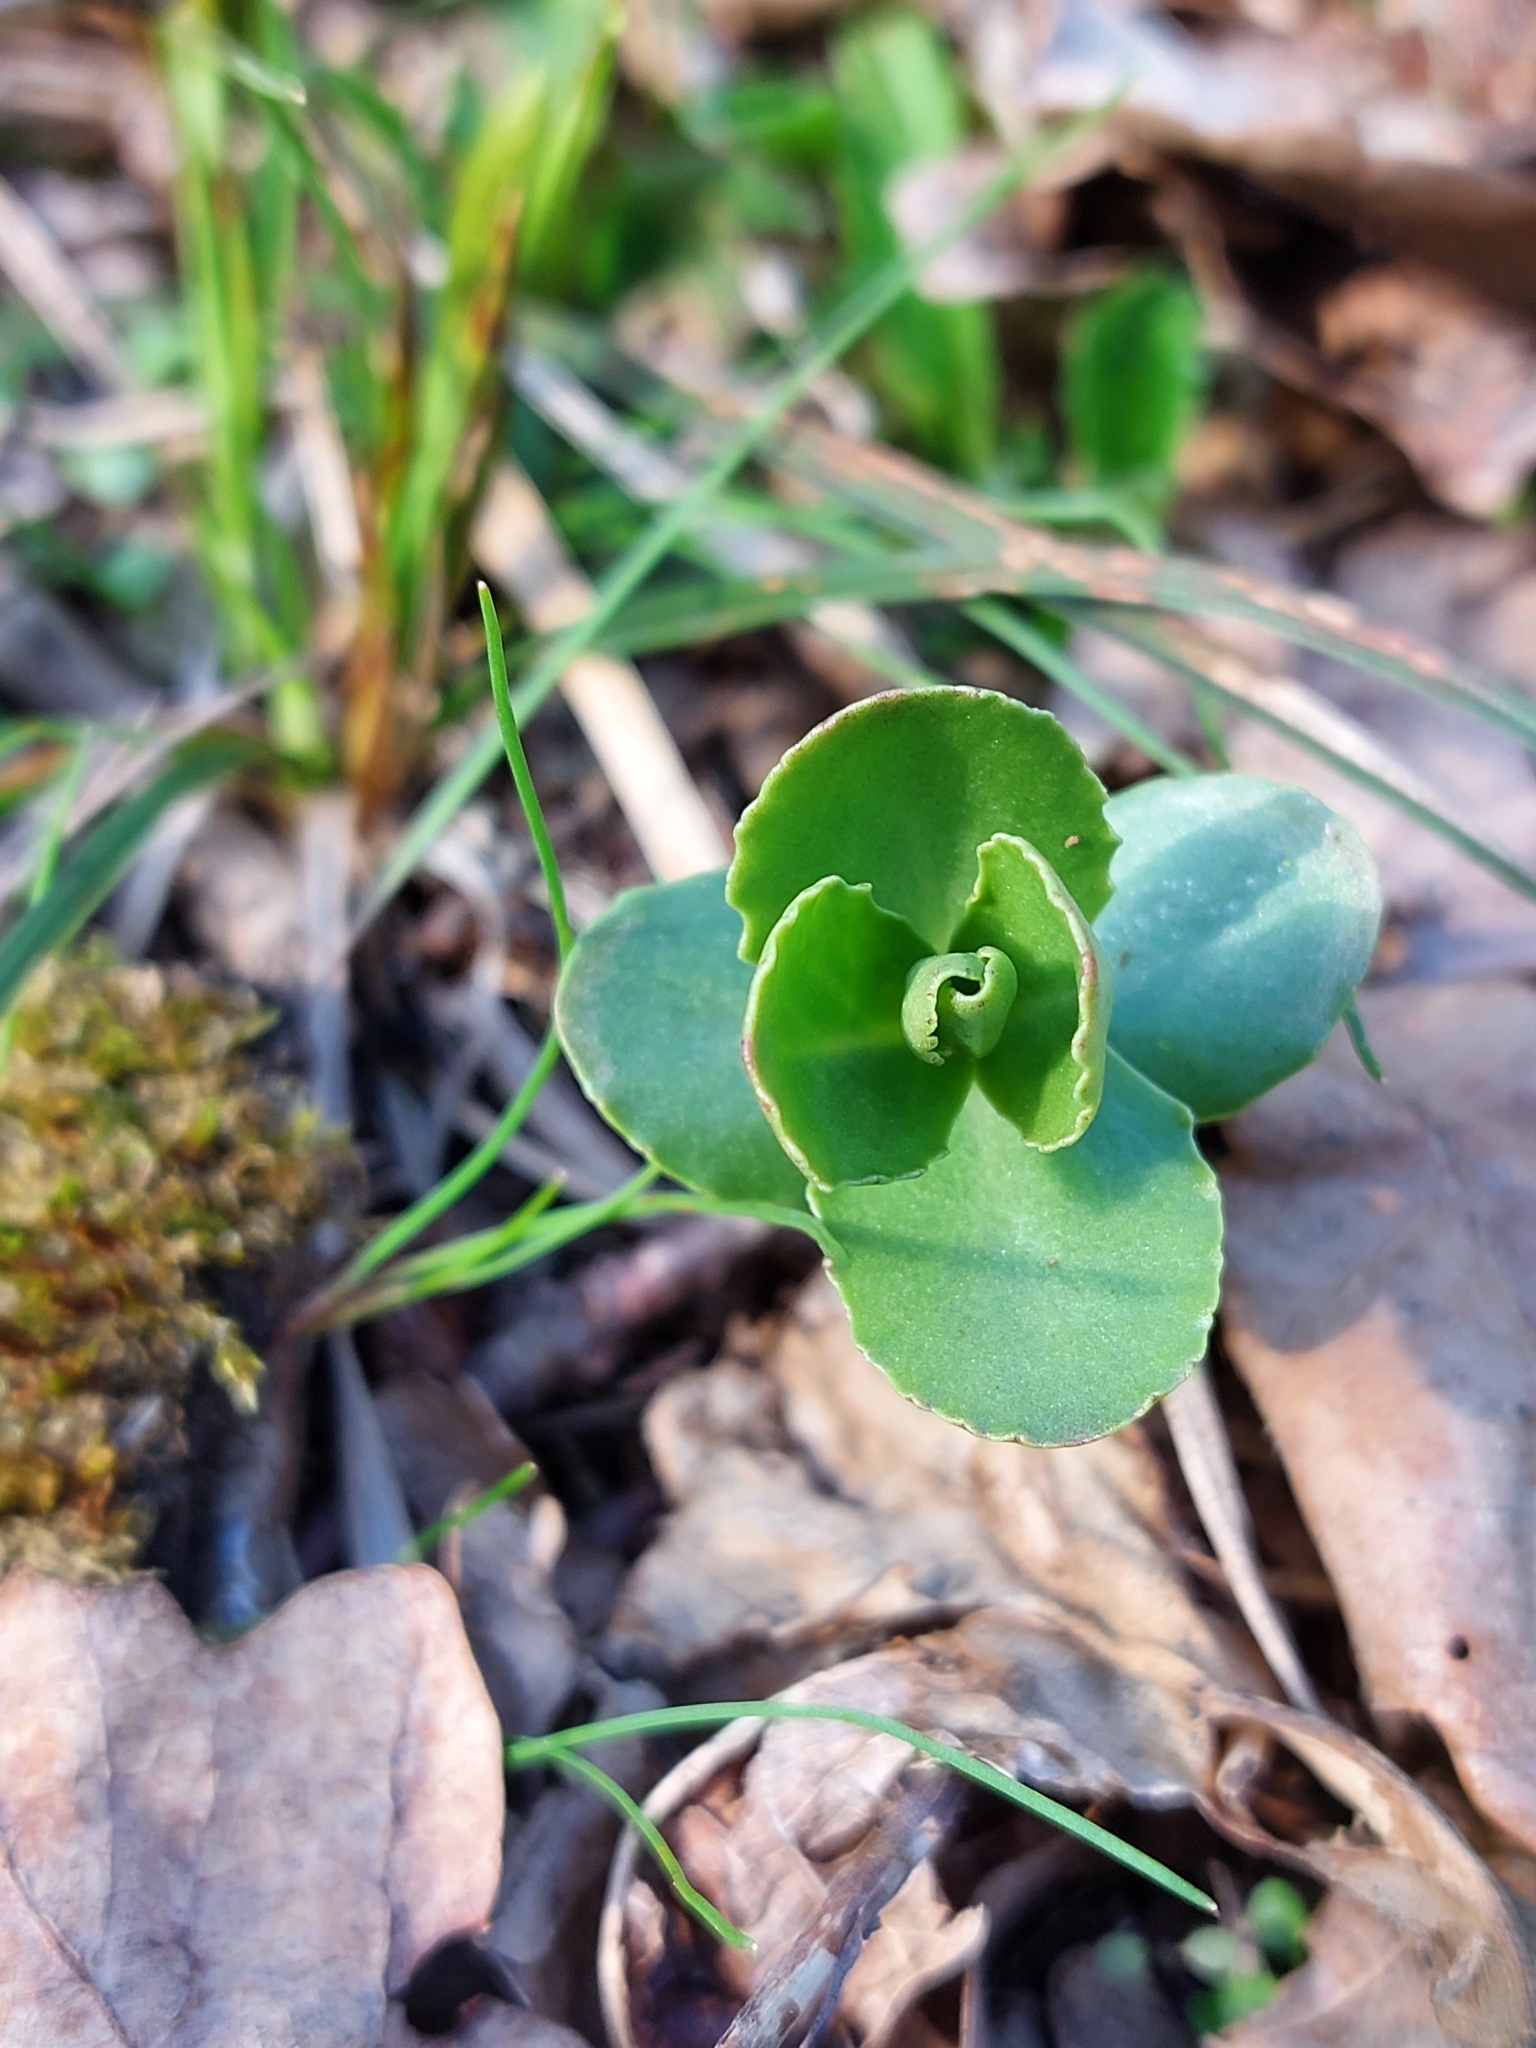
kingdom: Plantae
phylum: Tracheophyta
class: Magnoliopsida
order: Saxifragales
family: Crassulaceae
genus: Hylotelephium
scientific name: Hylotelephium maximum
